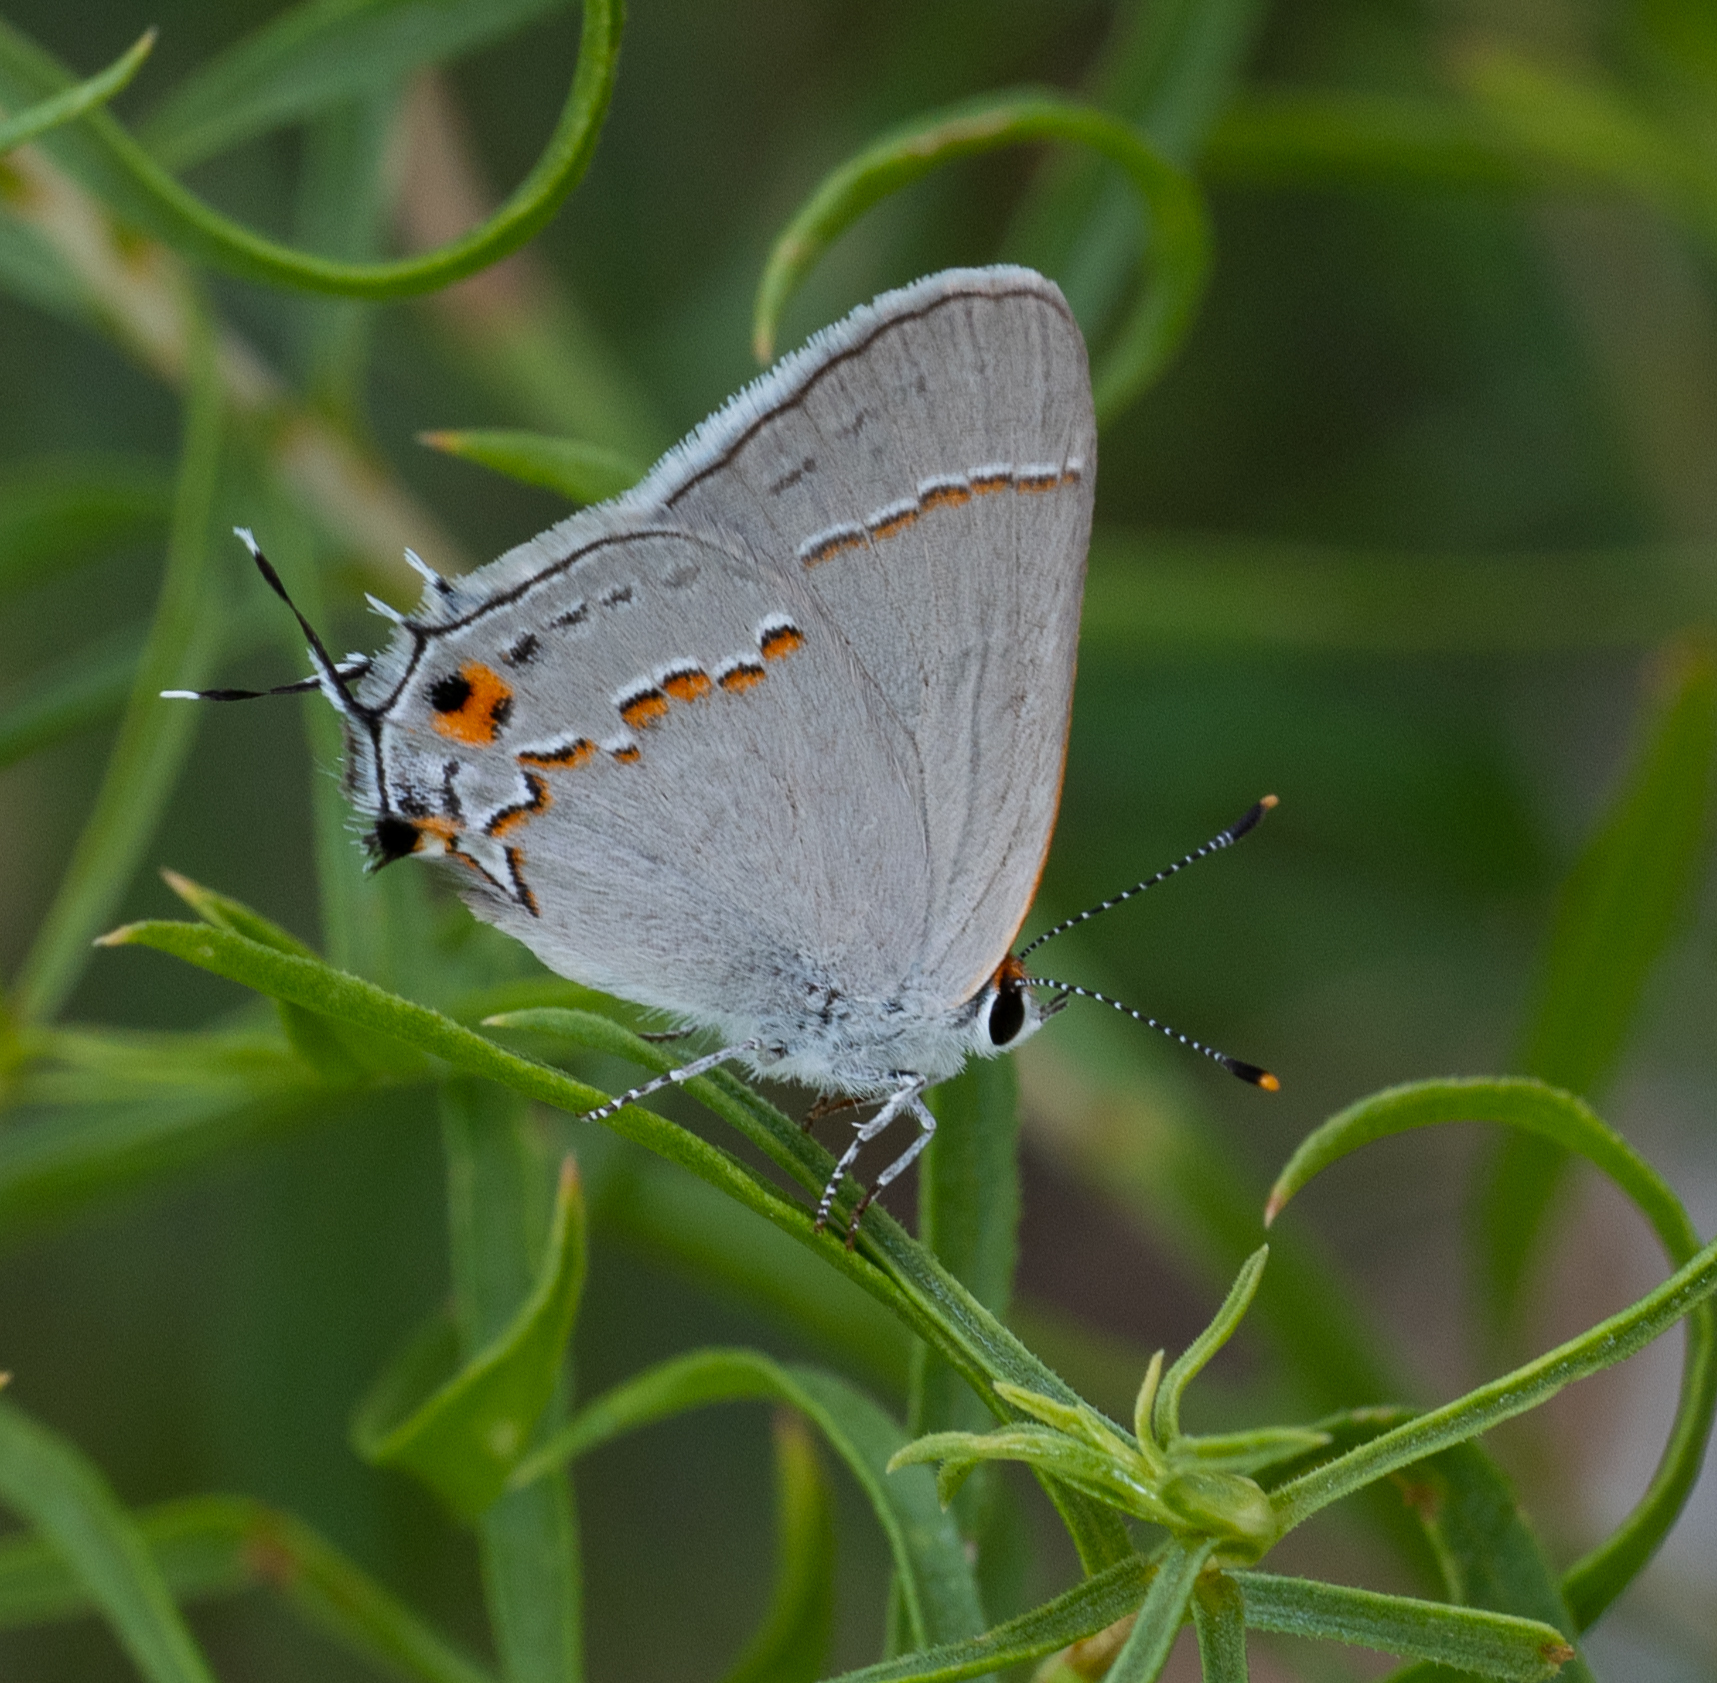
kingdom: Animalia
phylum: Arthropoda
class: Insecta
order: Lepidoptera
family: Lycaenidae
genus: Strymon
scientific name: Strymon melinus
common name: Gray hairstreak
